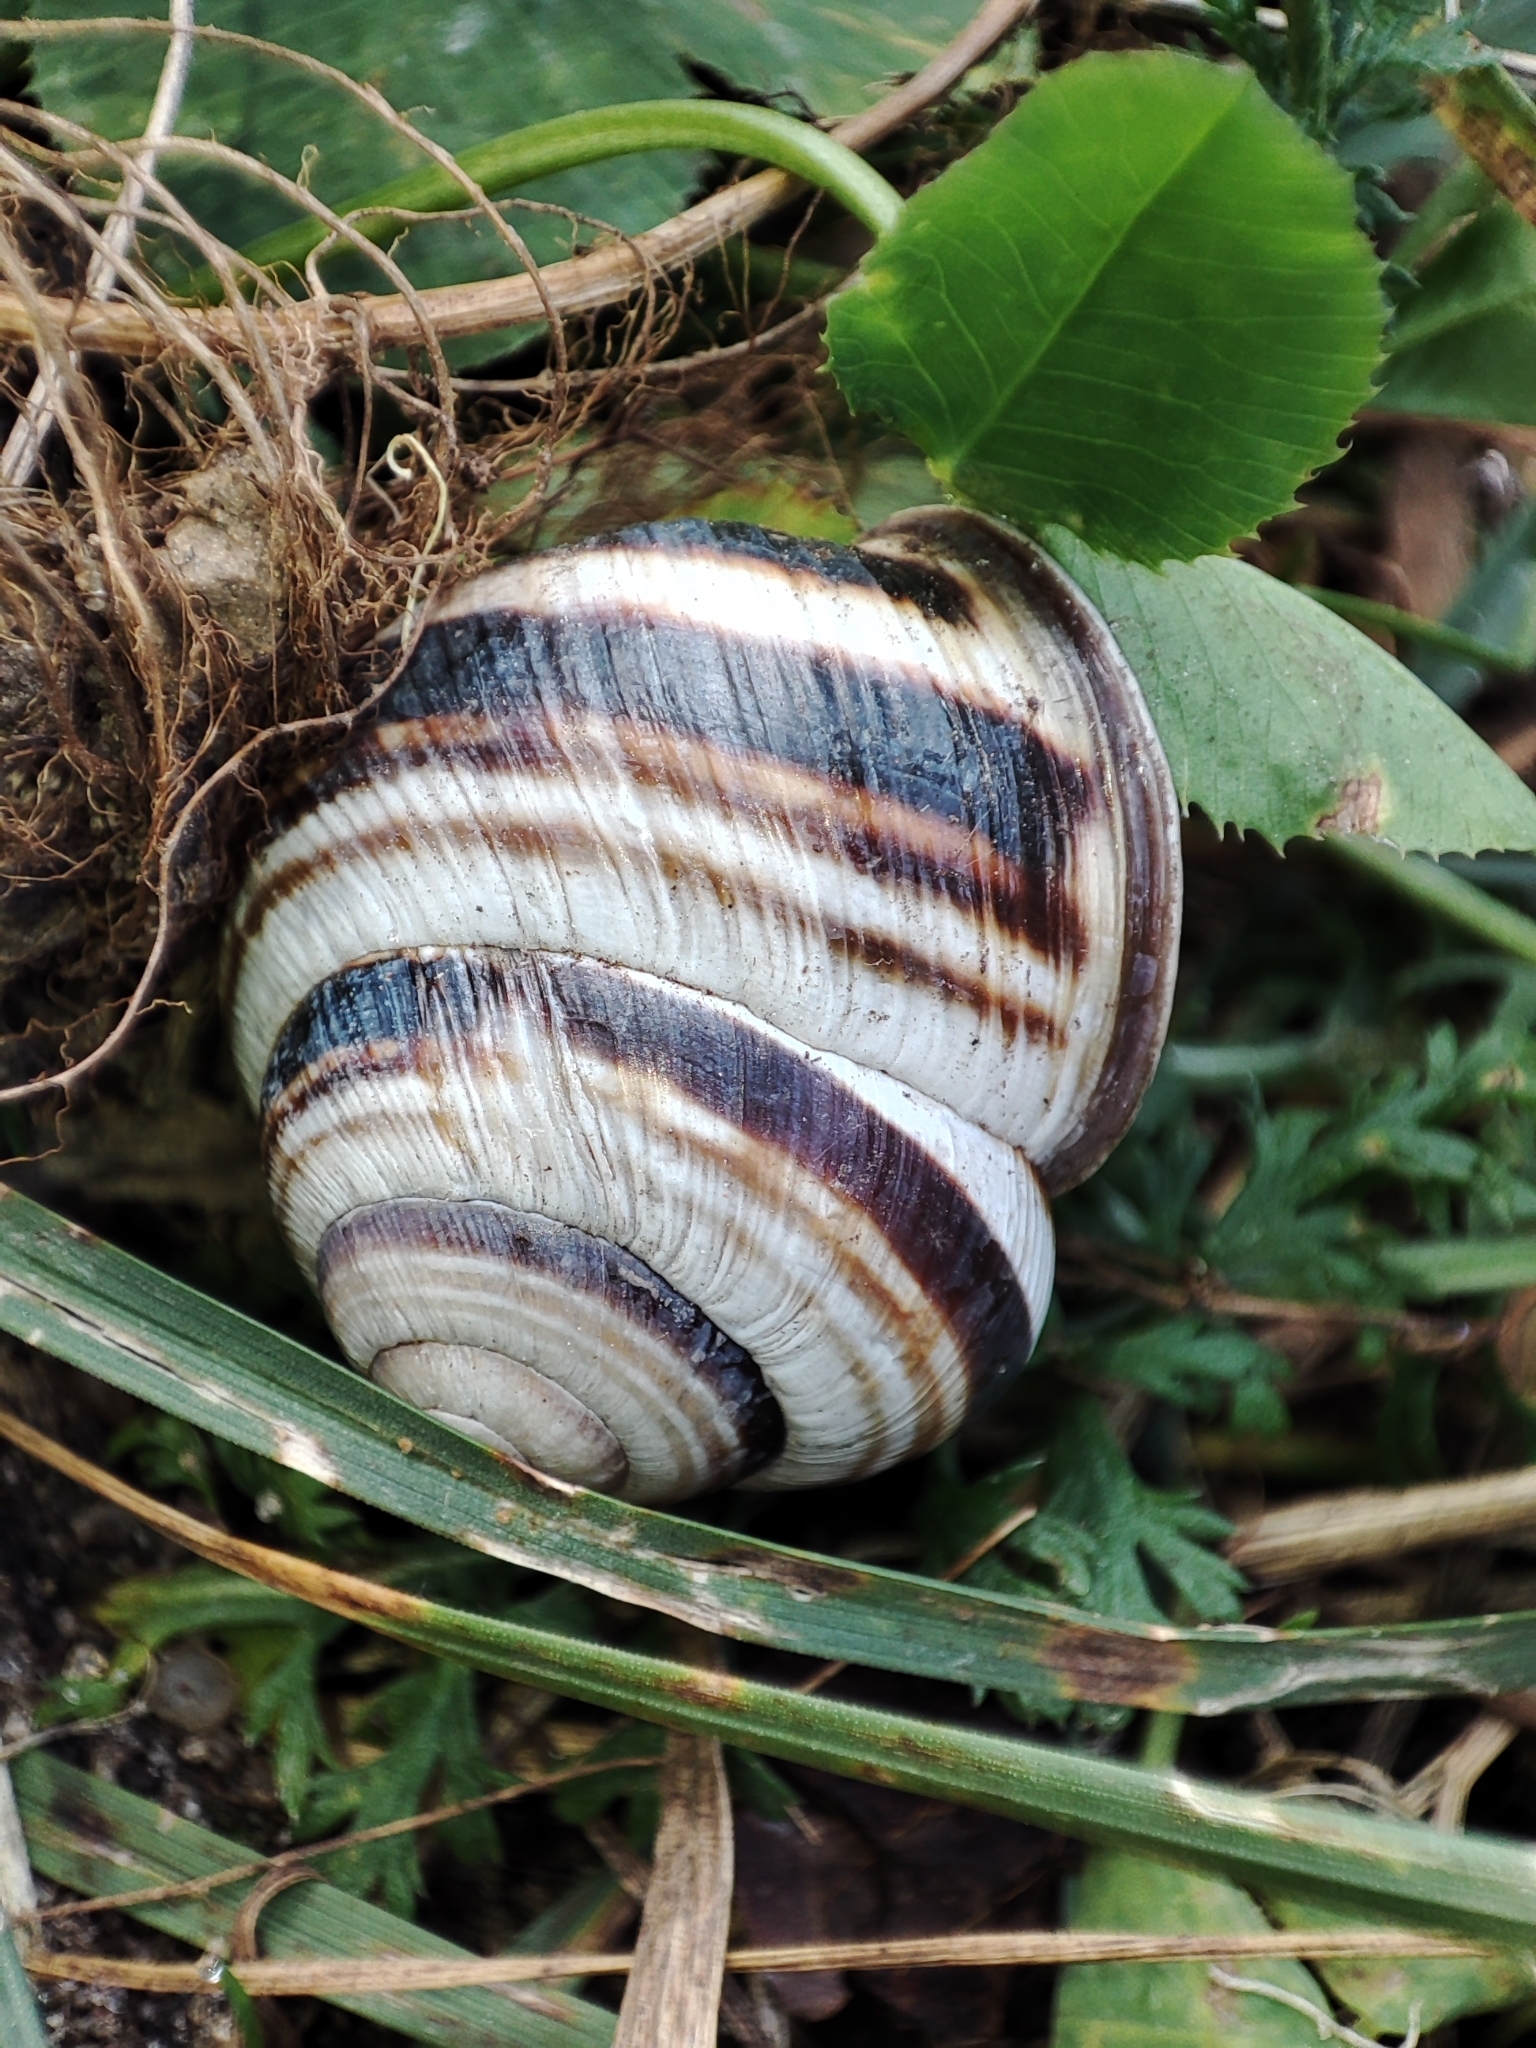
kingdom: Animalia
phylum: Mollusca
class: Gastropoda
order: Stylommatophora
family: Helicidae
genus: Caucasotachea
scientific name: Caucasotachea vindobonensis
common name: European helicid land snail
